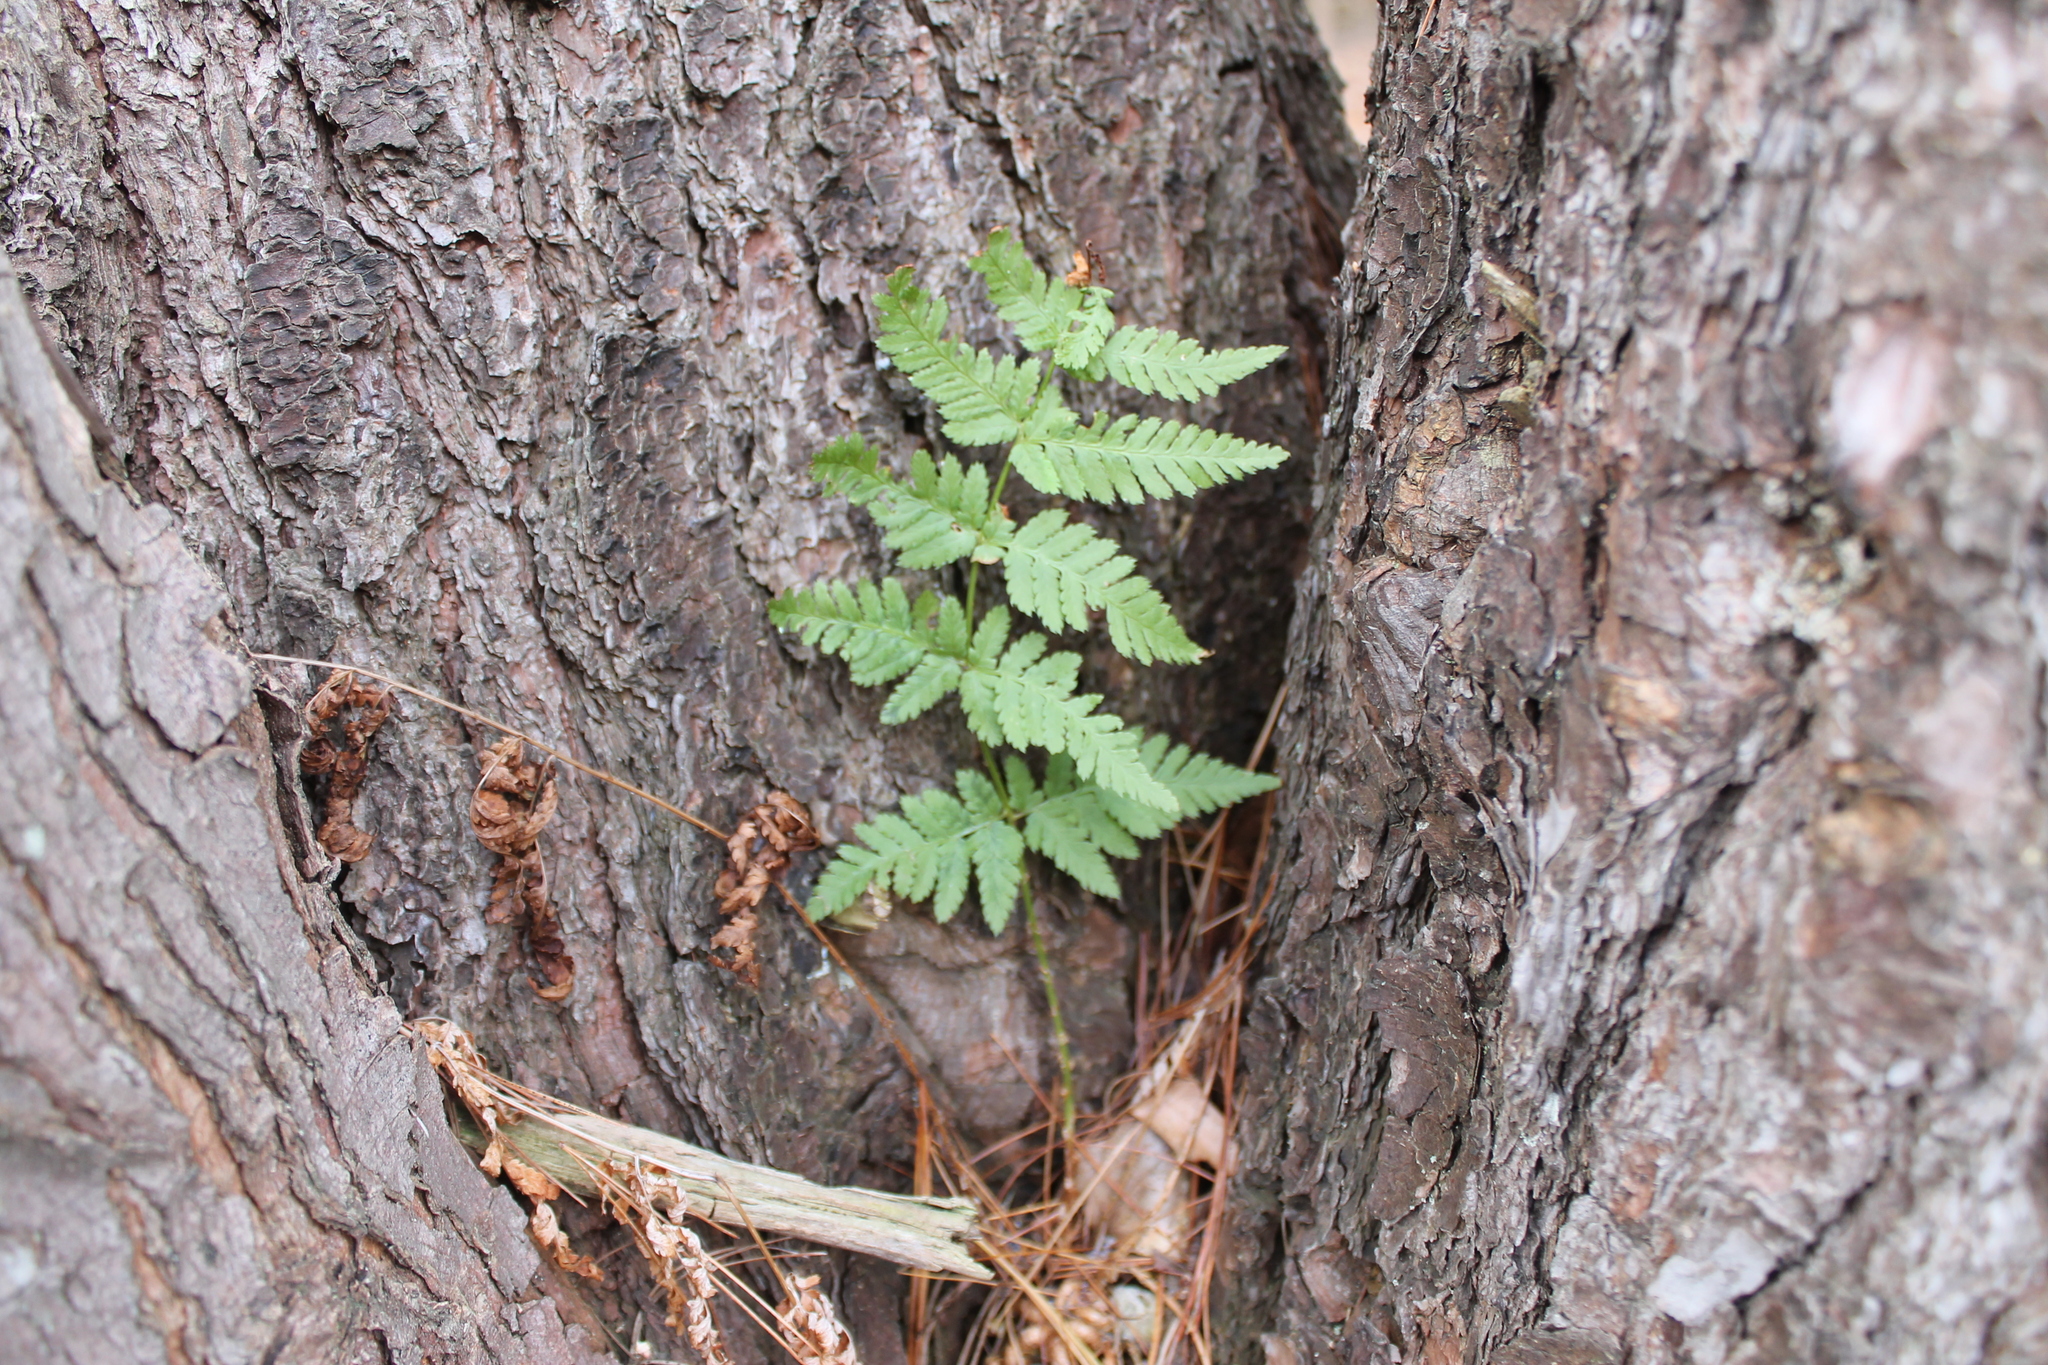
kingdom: Plantae
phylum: Tracheophyta
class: Polypodiopsida
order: Polypodiales
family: Dryopteridaceae
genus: Dryopteris
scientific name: Dryopteris carthusiana
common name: Narrow buckler-fern
